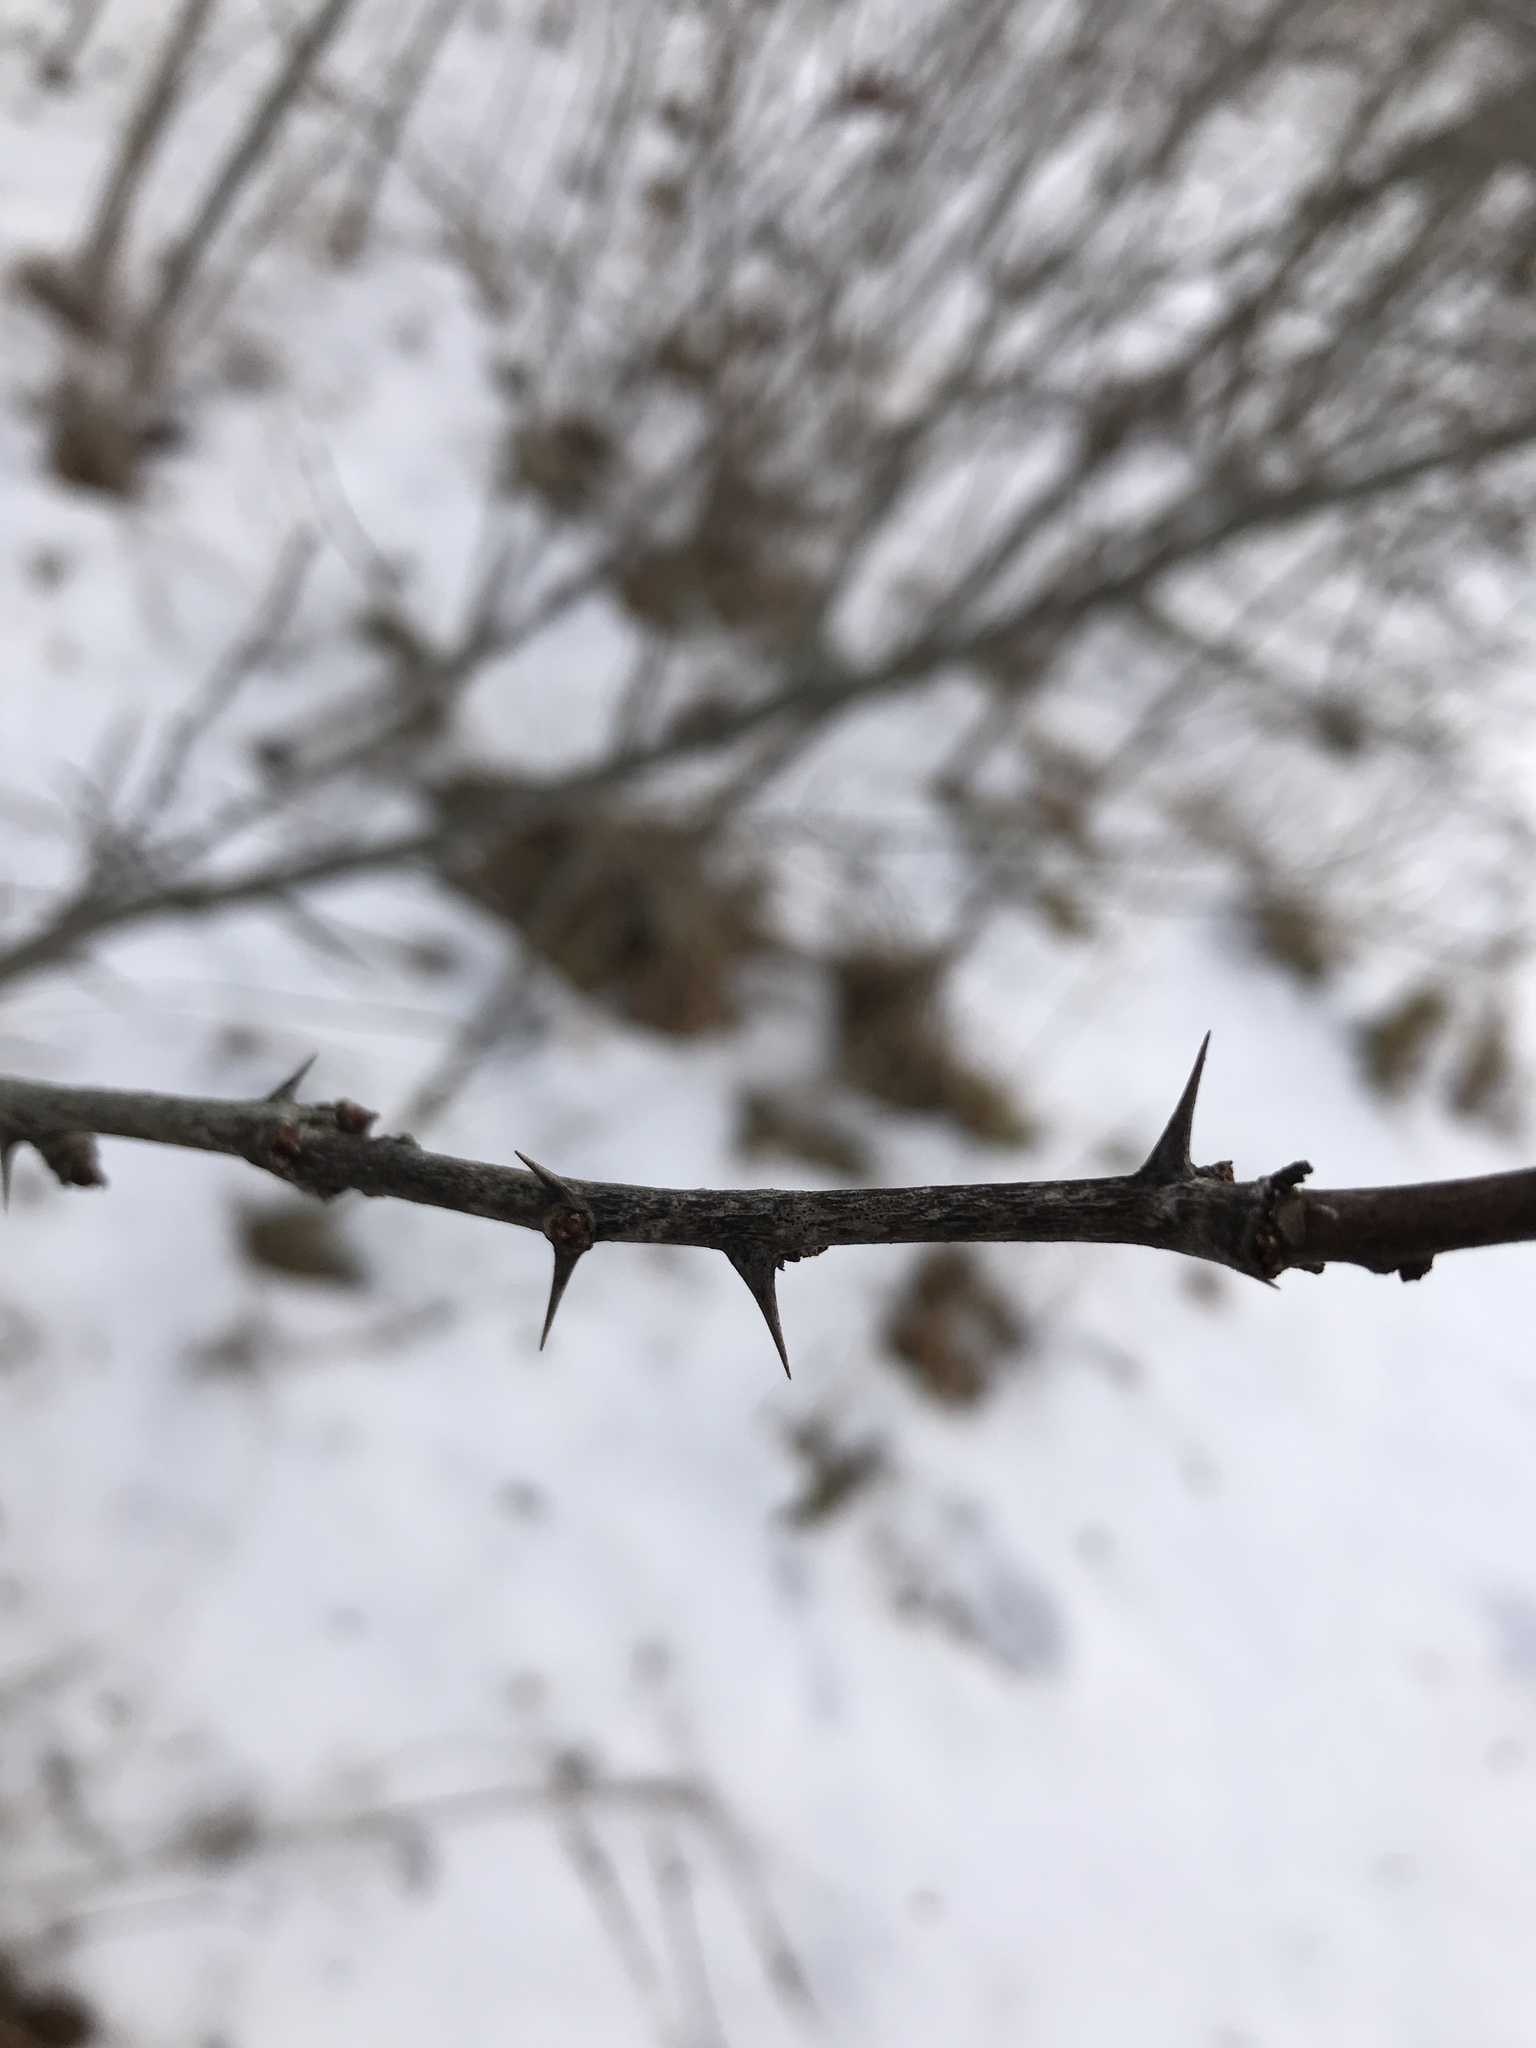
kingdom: Plantae
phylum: Tracheophyta
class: Magnoliopsida
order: Sapindales
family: Rutaceae
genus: Zanthoxylum
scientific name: Zanthoxylum americanum
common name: Northern prickly-ash
